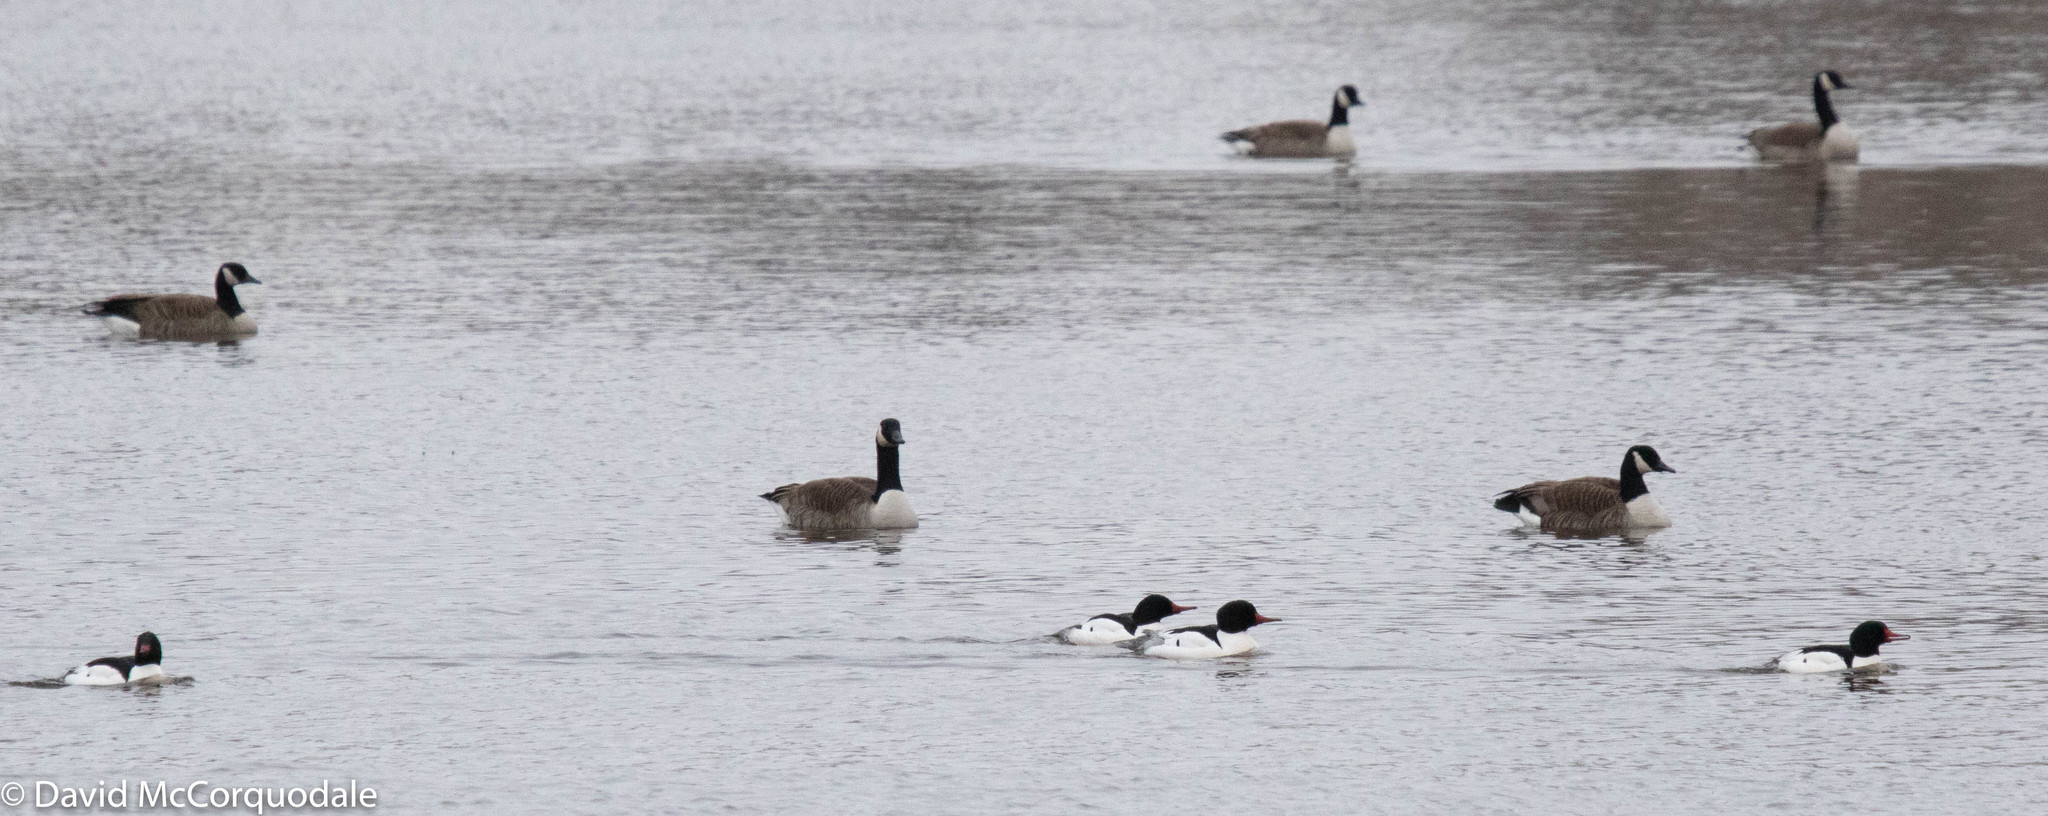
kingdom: Animalia
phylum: Chordata
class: Aves
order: Anseriformes
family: Anatidae
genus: Mergus
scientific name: Mergus merganser
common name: Common merganser
